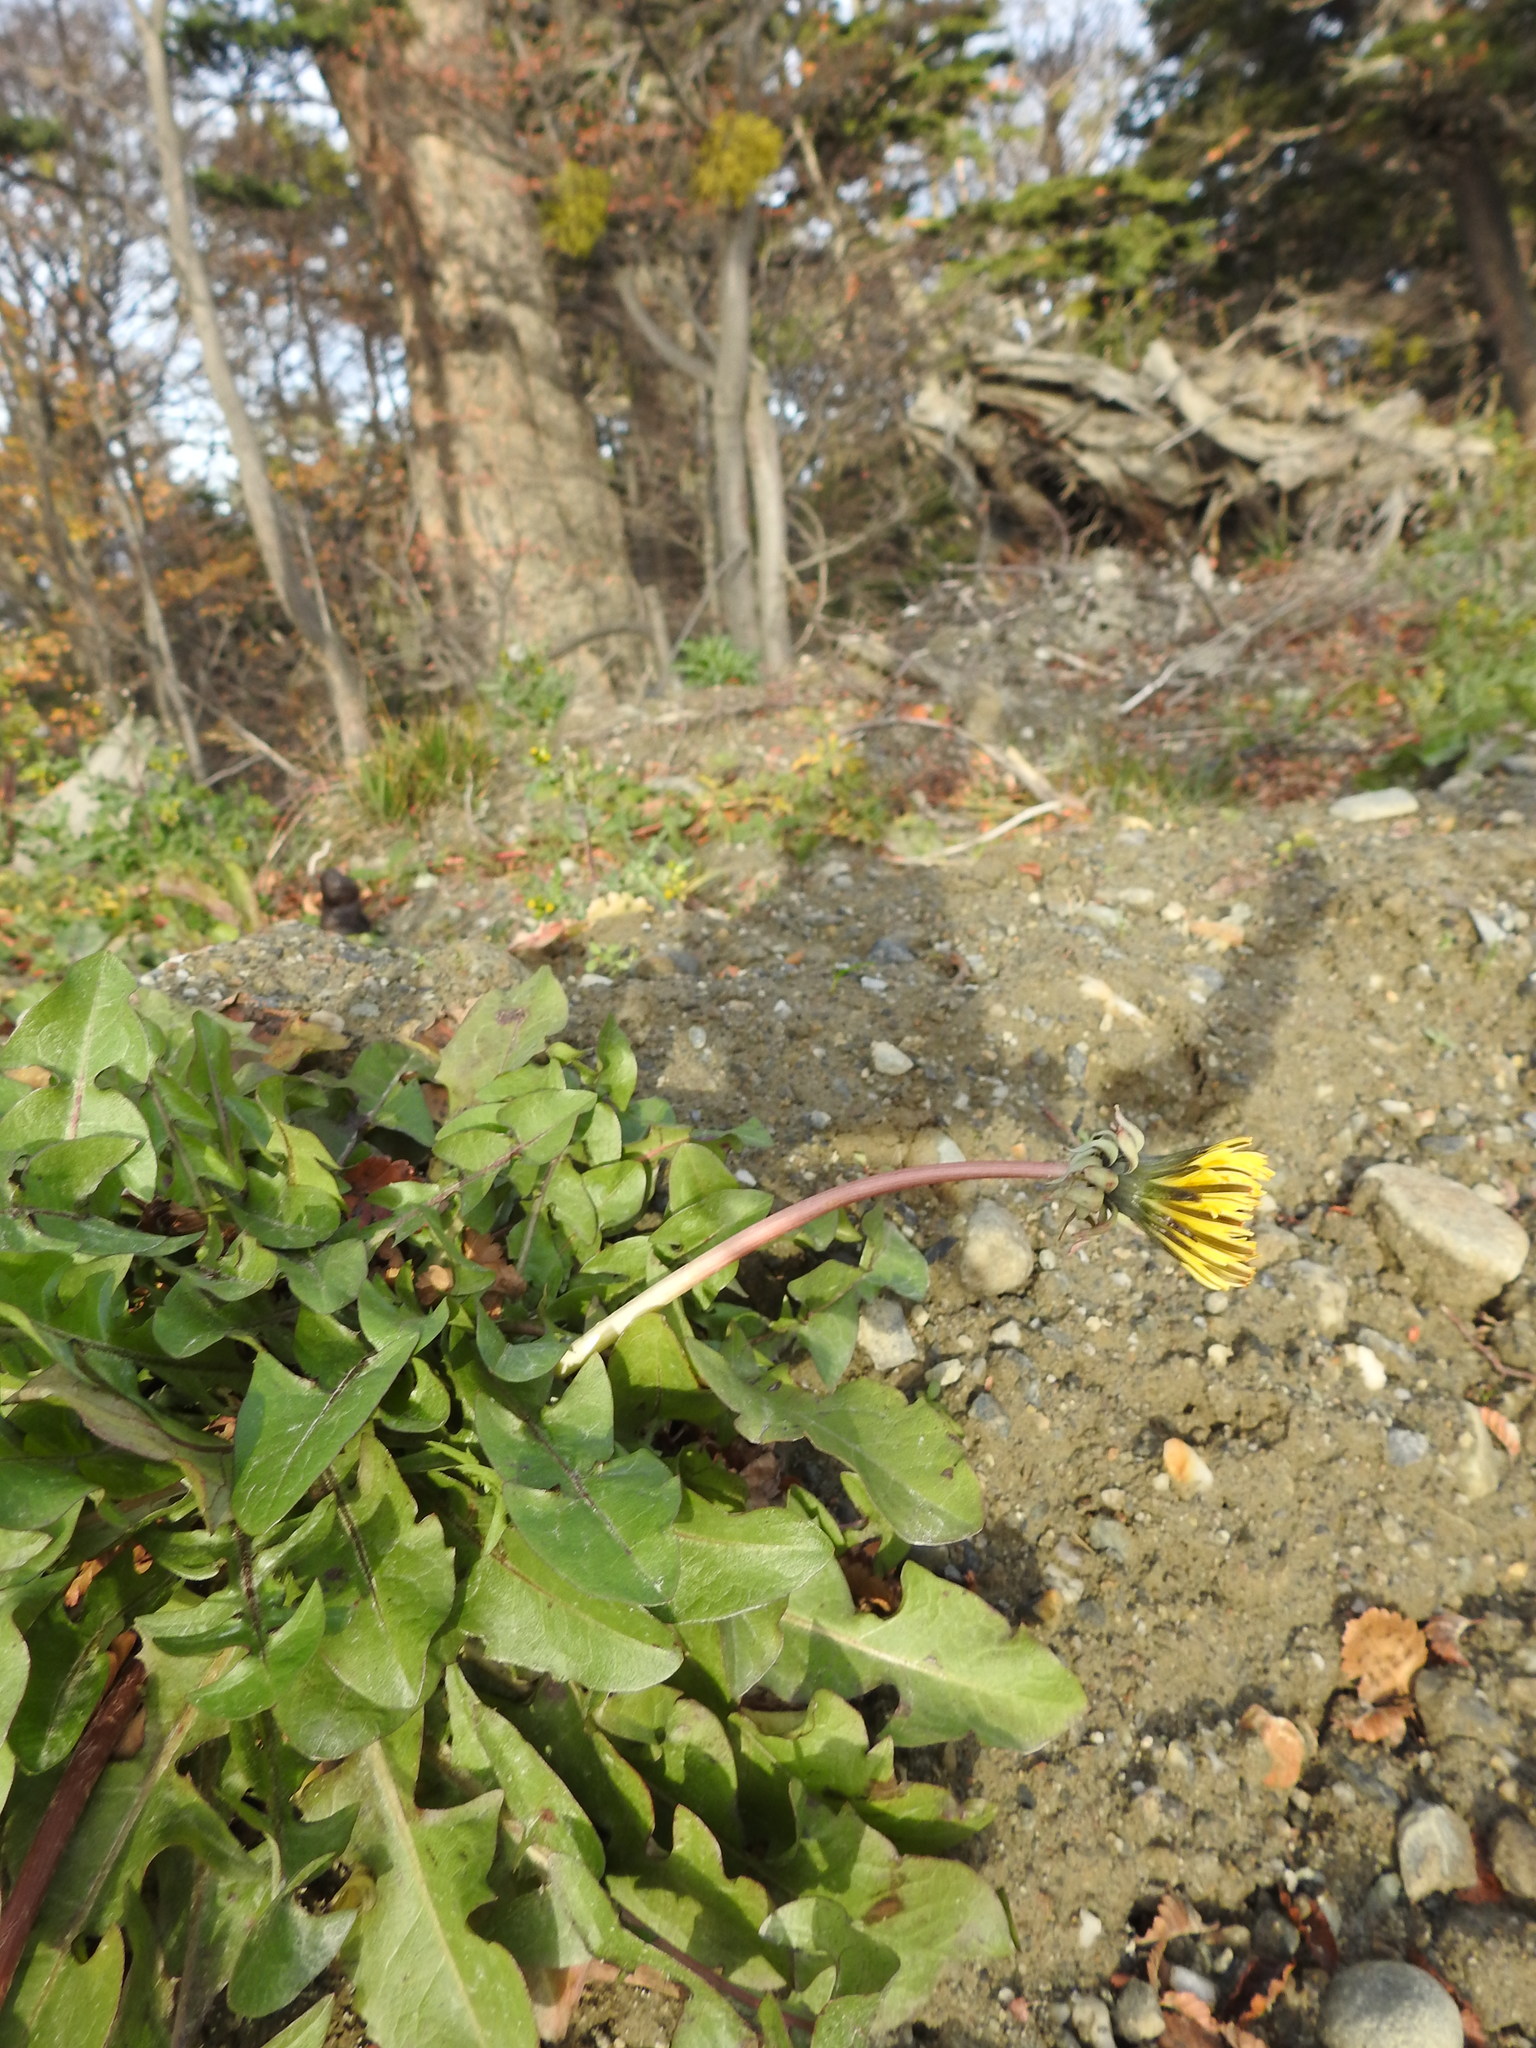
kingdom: Plantae
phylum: Tracheophyta
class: Magnoliopsida
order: Asterales
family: Asteraceae
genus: Taraxacum
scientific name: Taraxacum officinale
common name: Common dandelion
